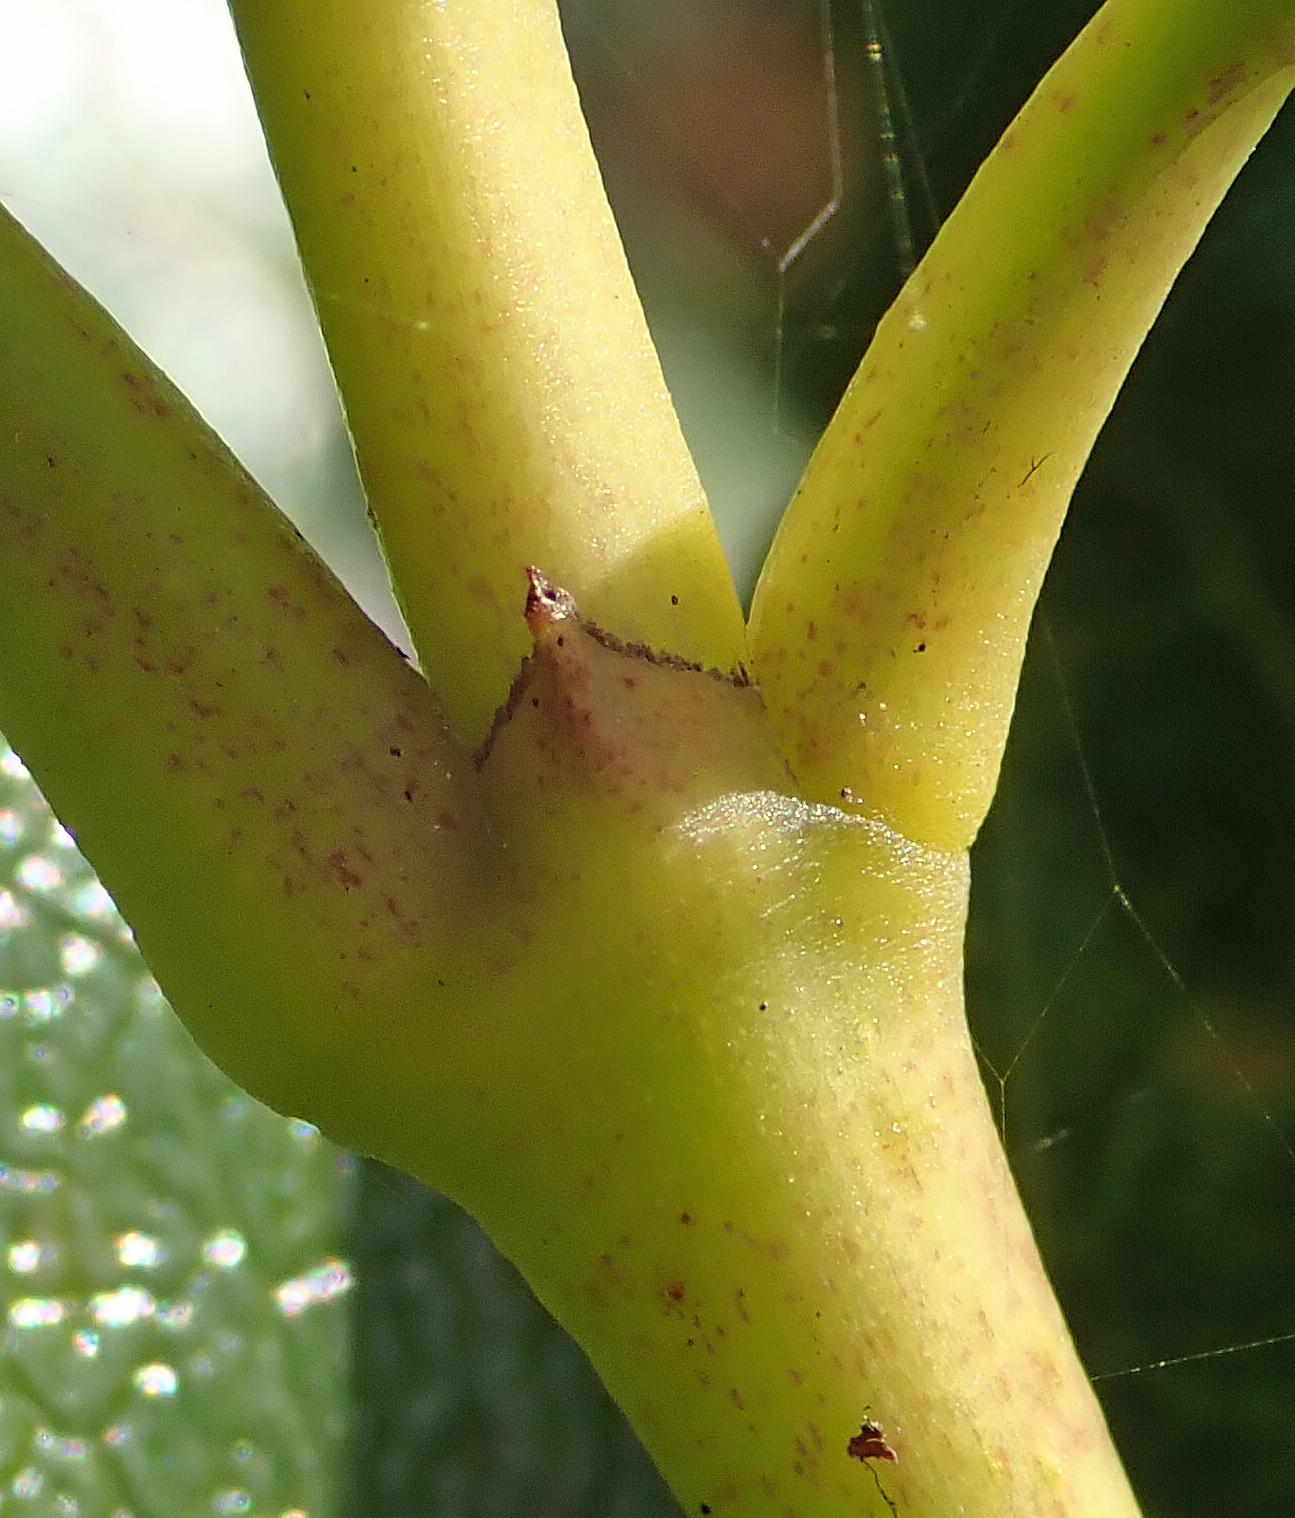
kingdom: Plantae
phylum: Tracheophyta
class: Magnoliopsida
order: Gentianales
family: Rubiaceae
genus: Coprosma
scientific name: Coprosma lucida
